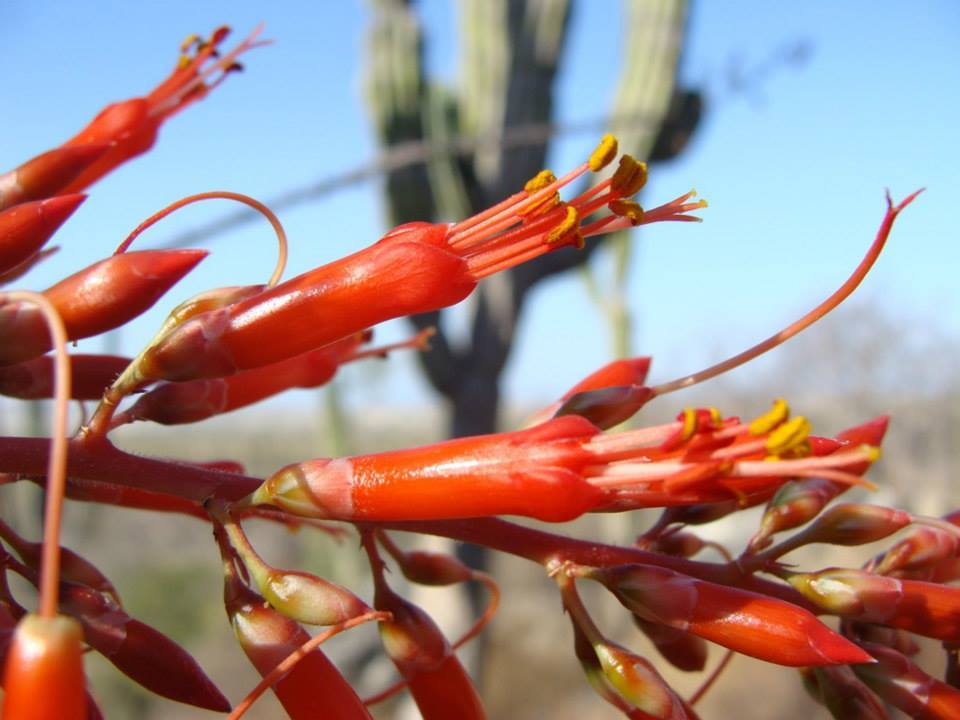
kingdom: Plantae
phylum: Tracheophyta
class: Magnoliopsida
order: Ericales
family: Fouquieriaceae
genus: Fouquieria
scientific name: Fouquieria diguetii
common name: Adam's tree
